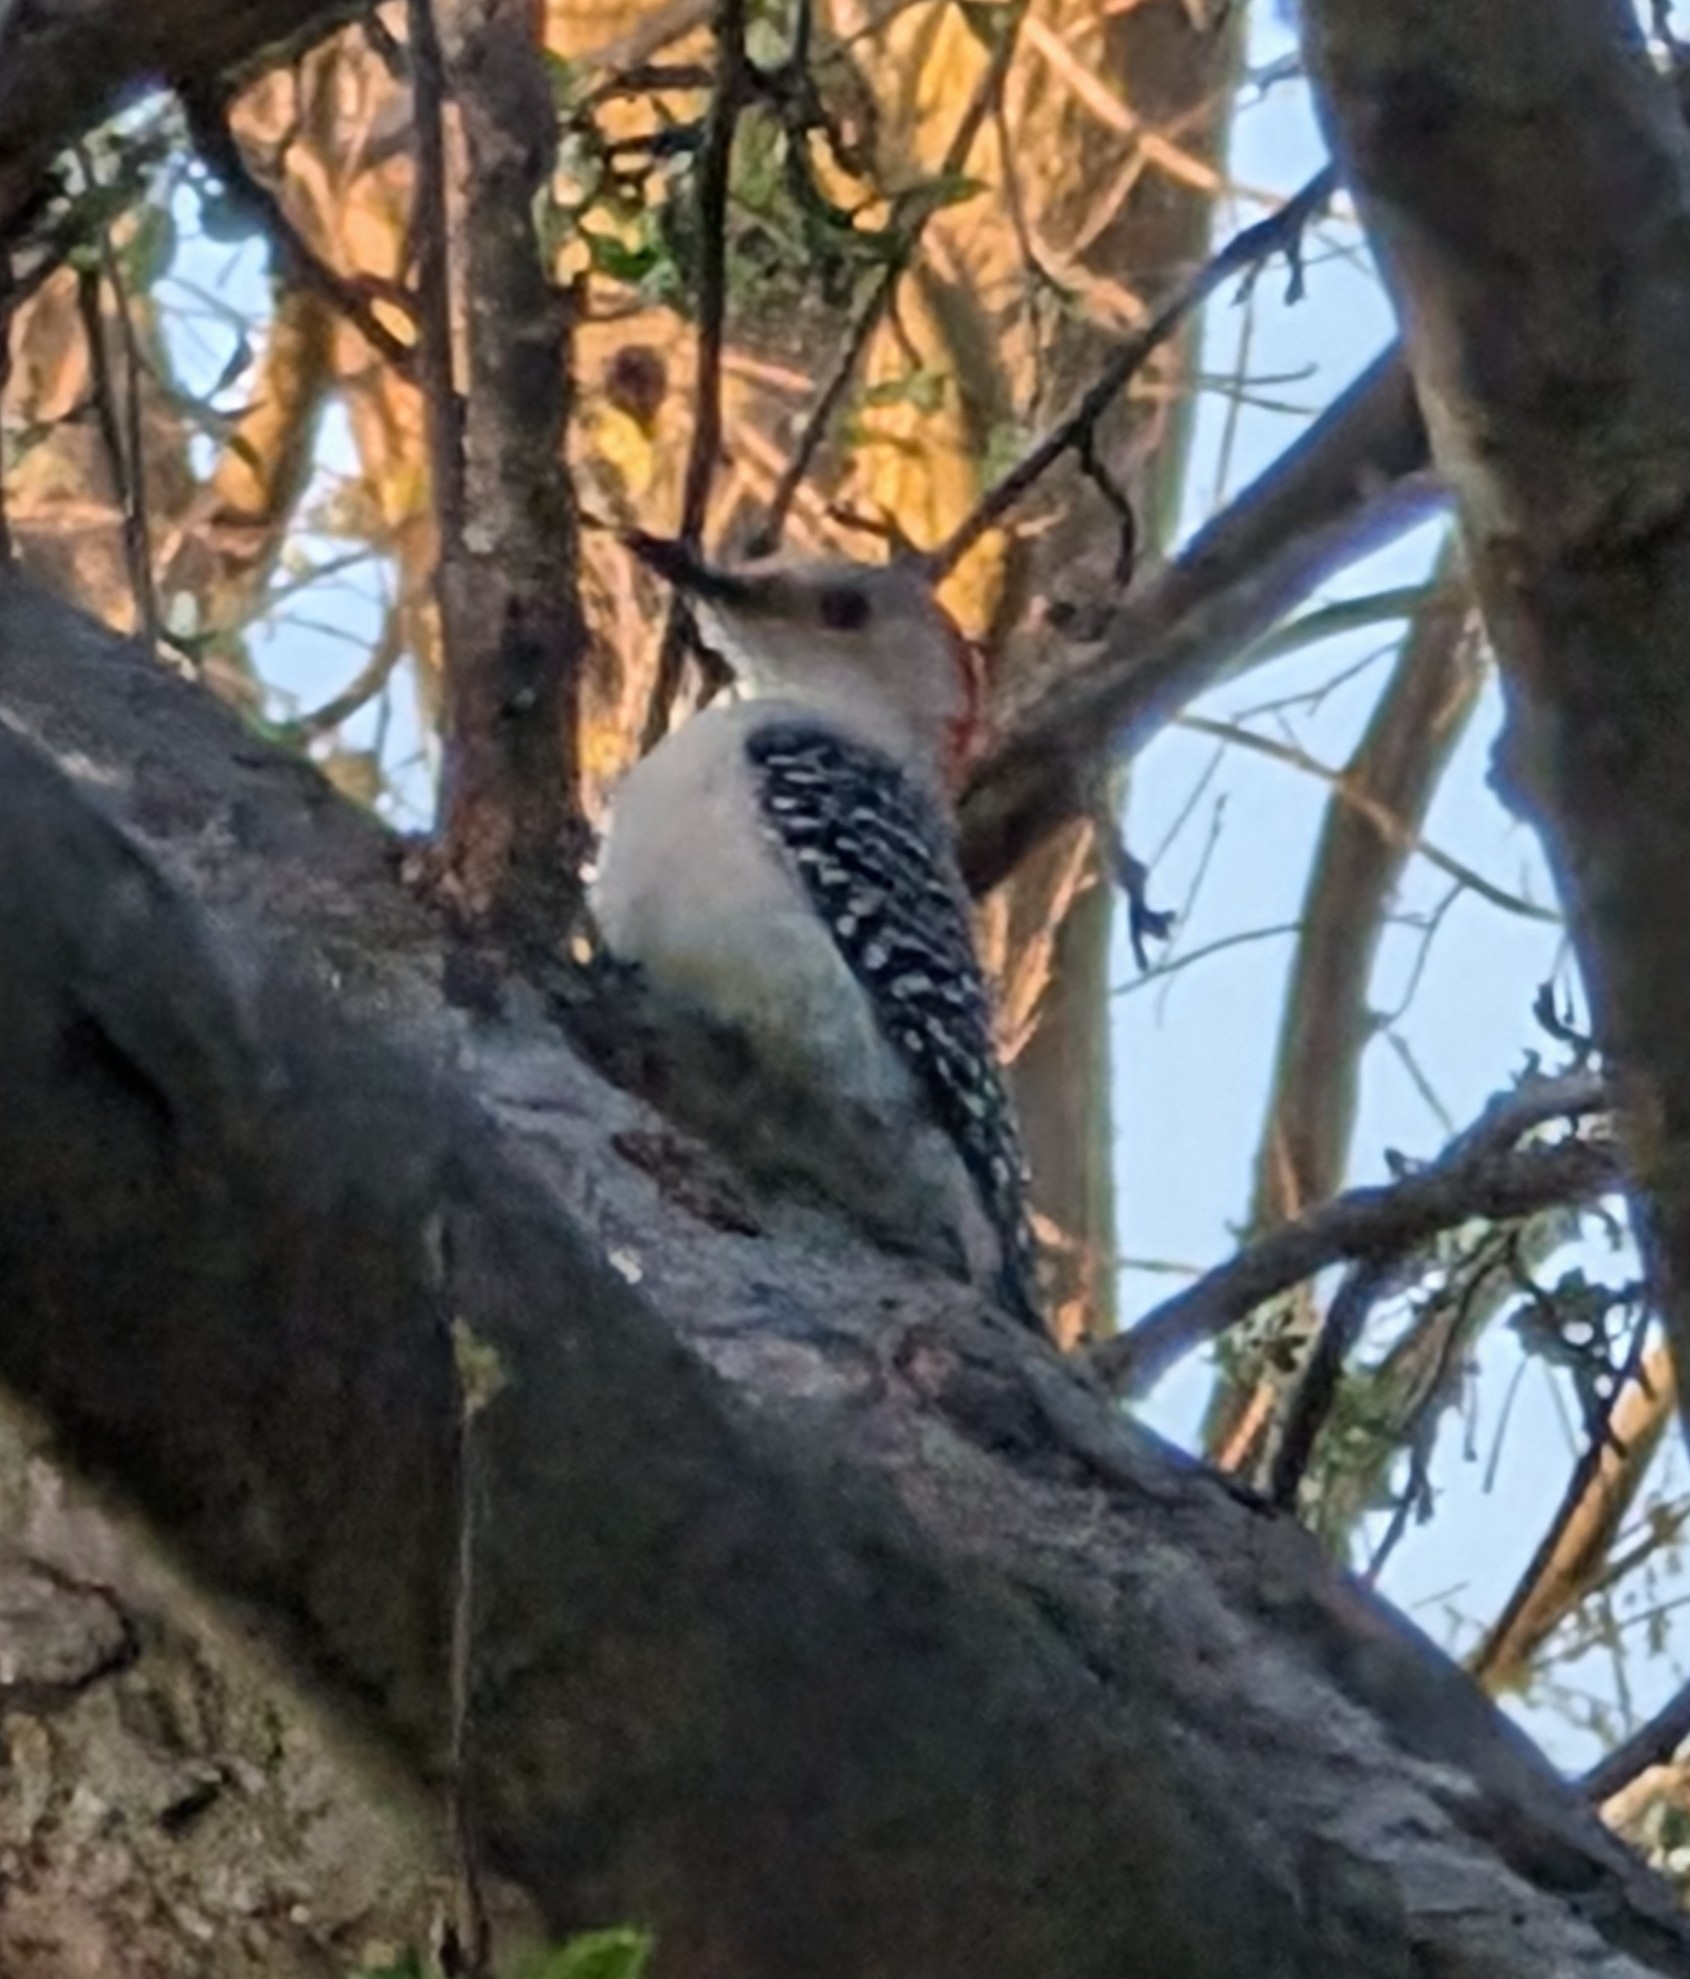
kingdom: Animalia
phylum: Chordata
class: Aves
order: Piciformes
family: Picidae
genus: Melanerpes
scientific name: Melanerpes carolinus
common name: Red-bellied woodpecker
